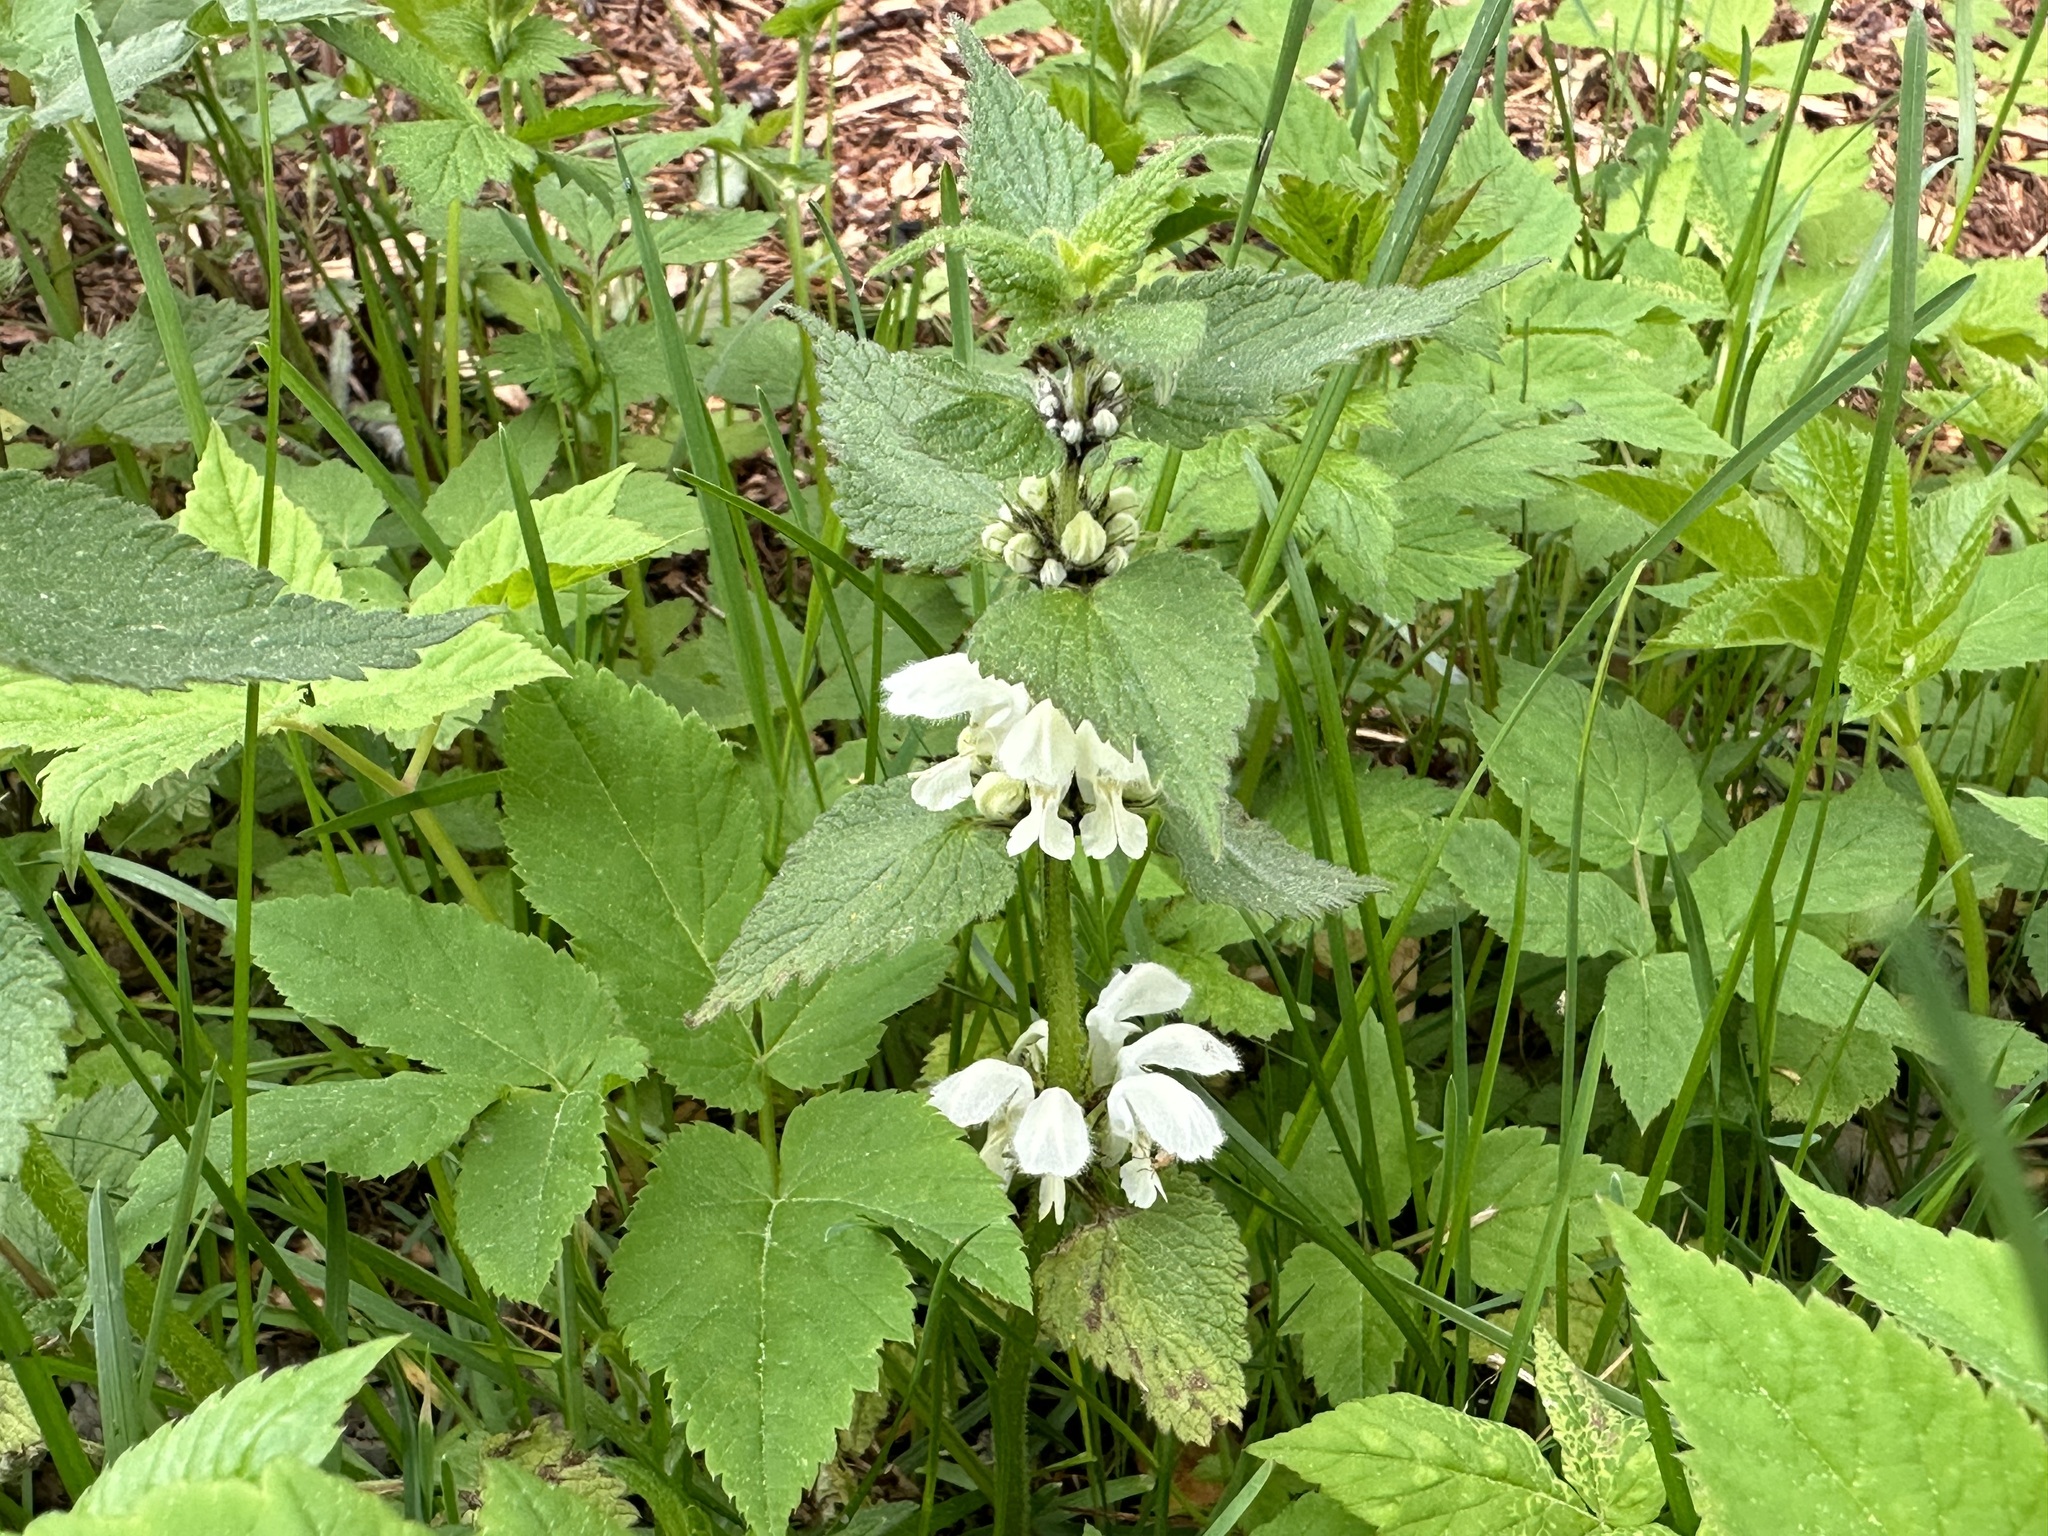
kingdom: Plantae
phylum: Tracheophyta
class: Magnoliopsida
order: Lamiales
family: Lamiaceae
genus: Lamium
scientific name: Lamium album
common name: White dead-nettle
